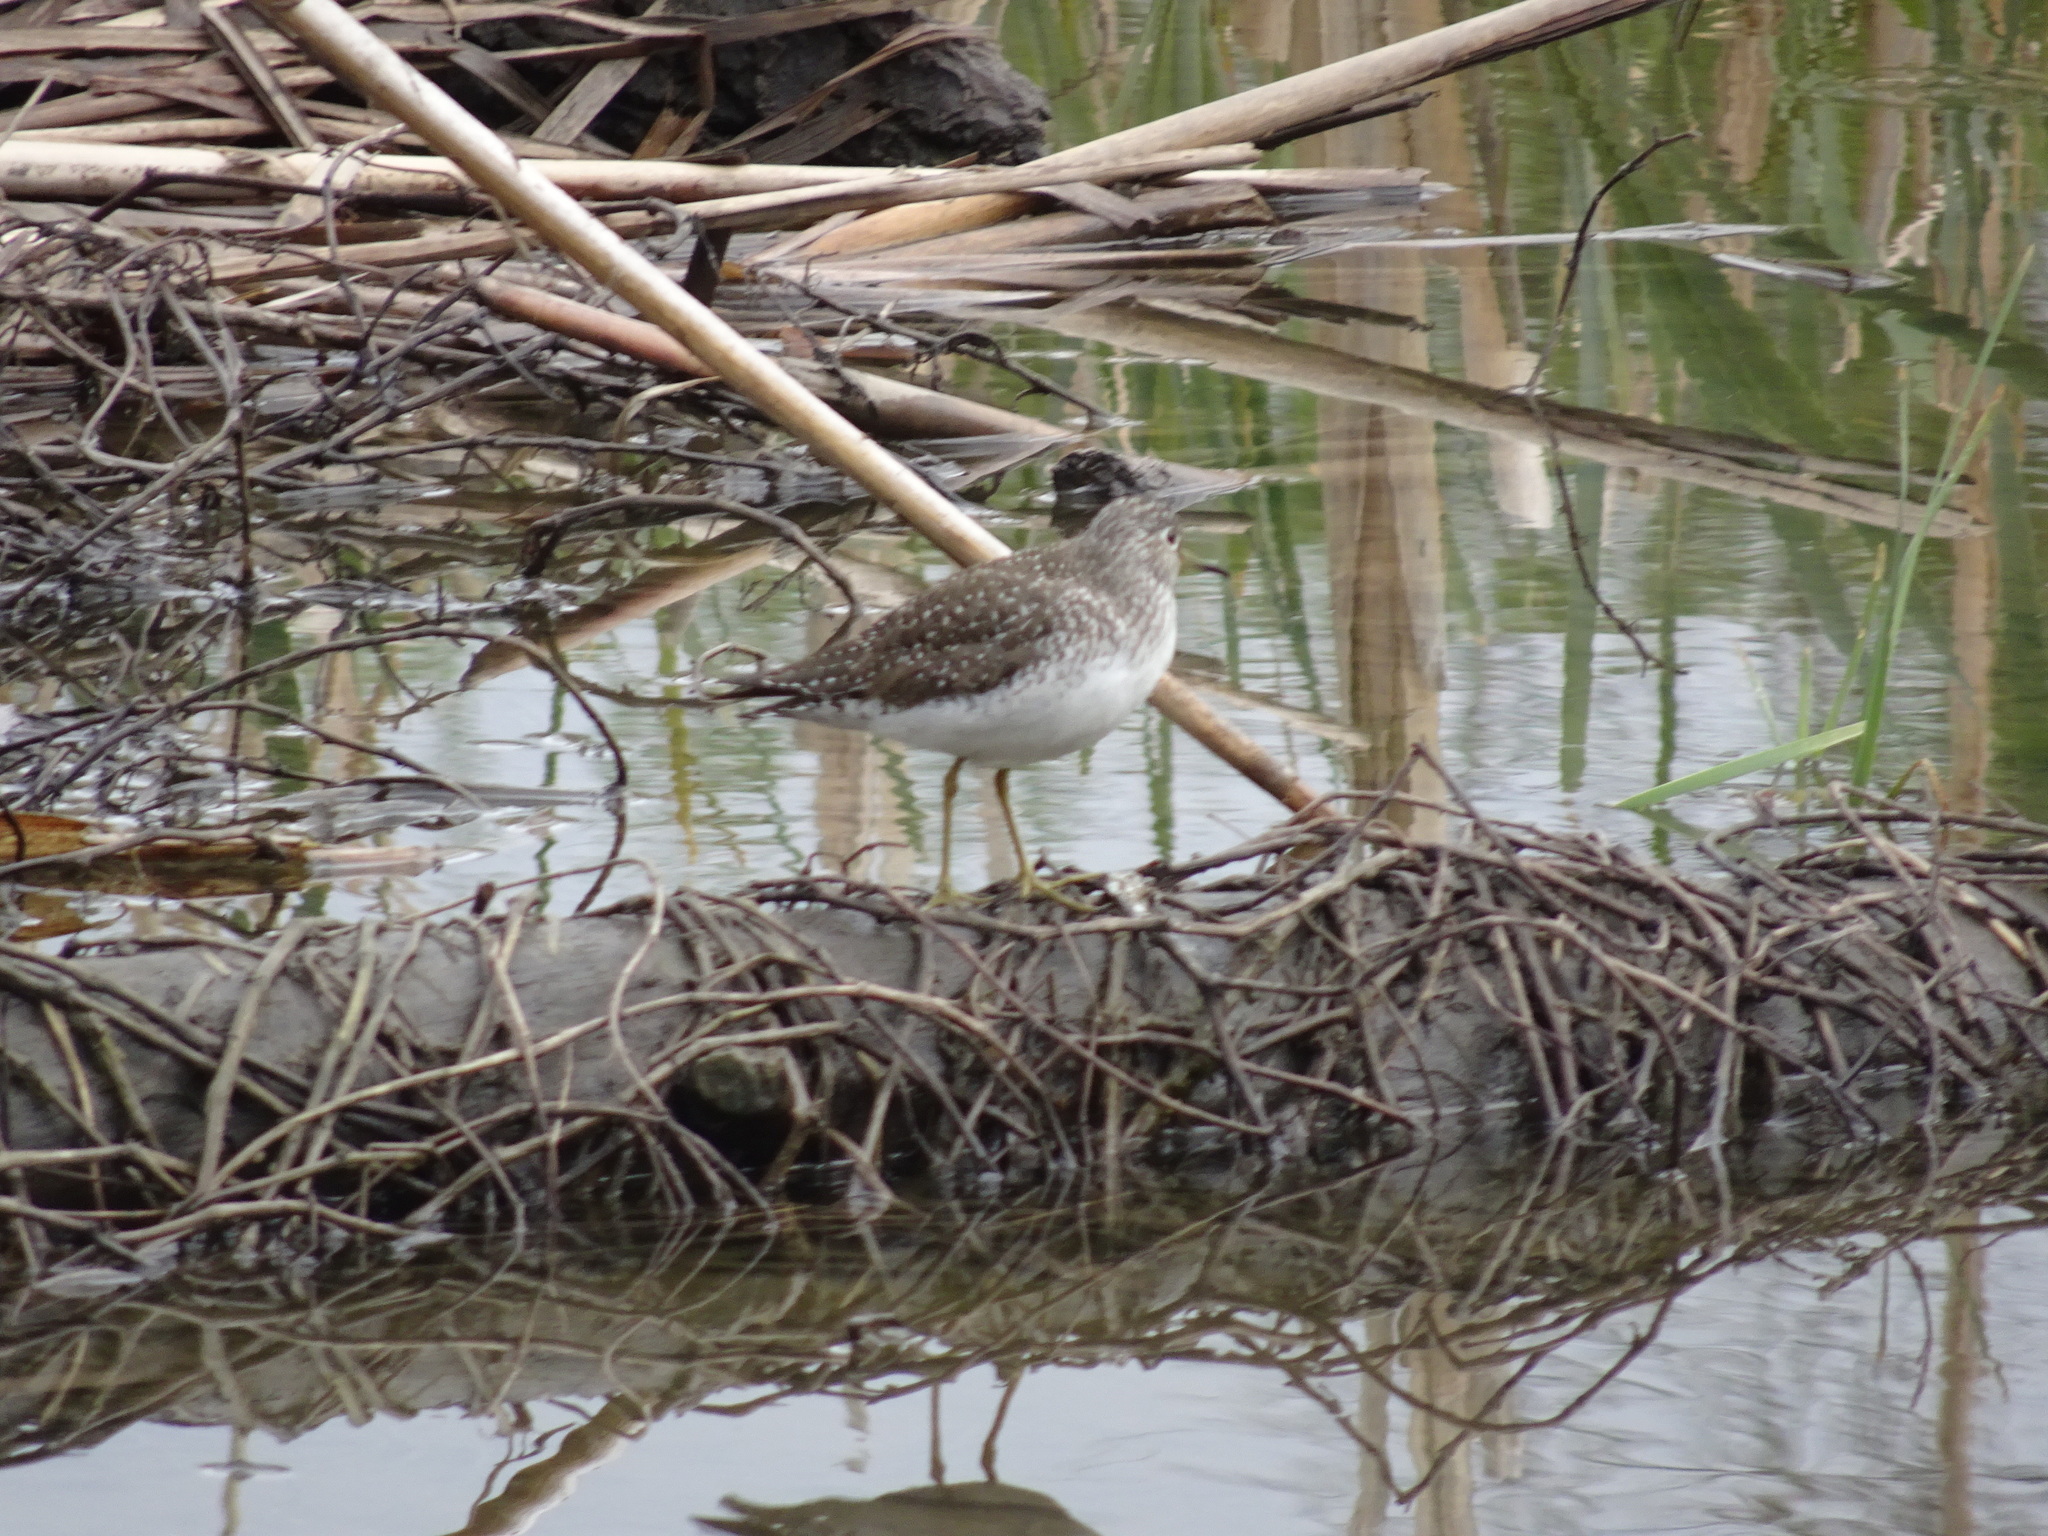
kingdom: Animalia
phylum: Chordata
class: Aves
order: Charadriiformes
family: Scolopacidae
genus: Tringa
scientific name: Tringa solitaria
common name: Solitary sandpiper
